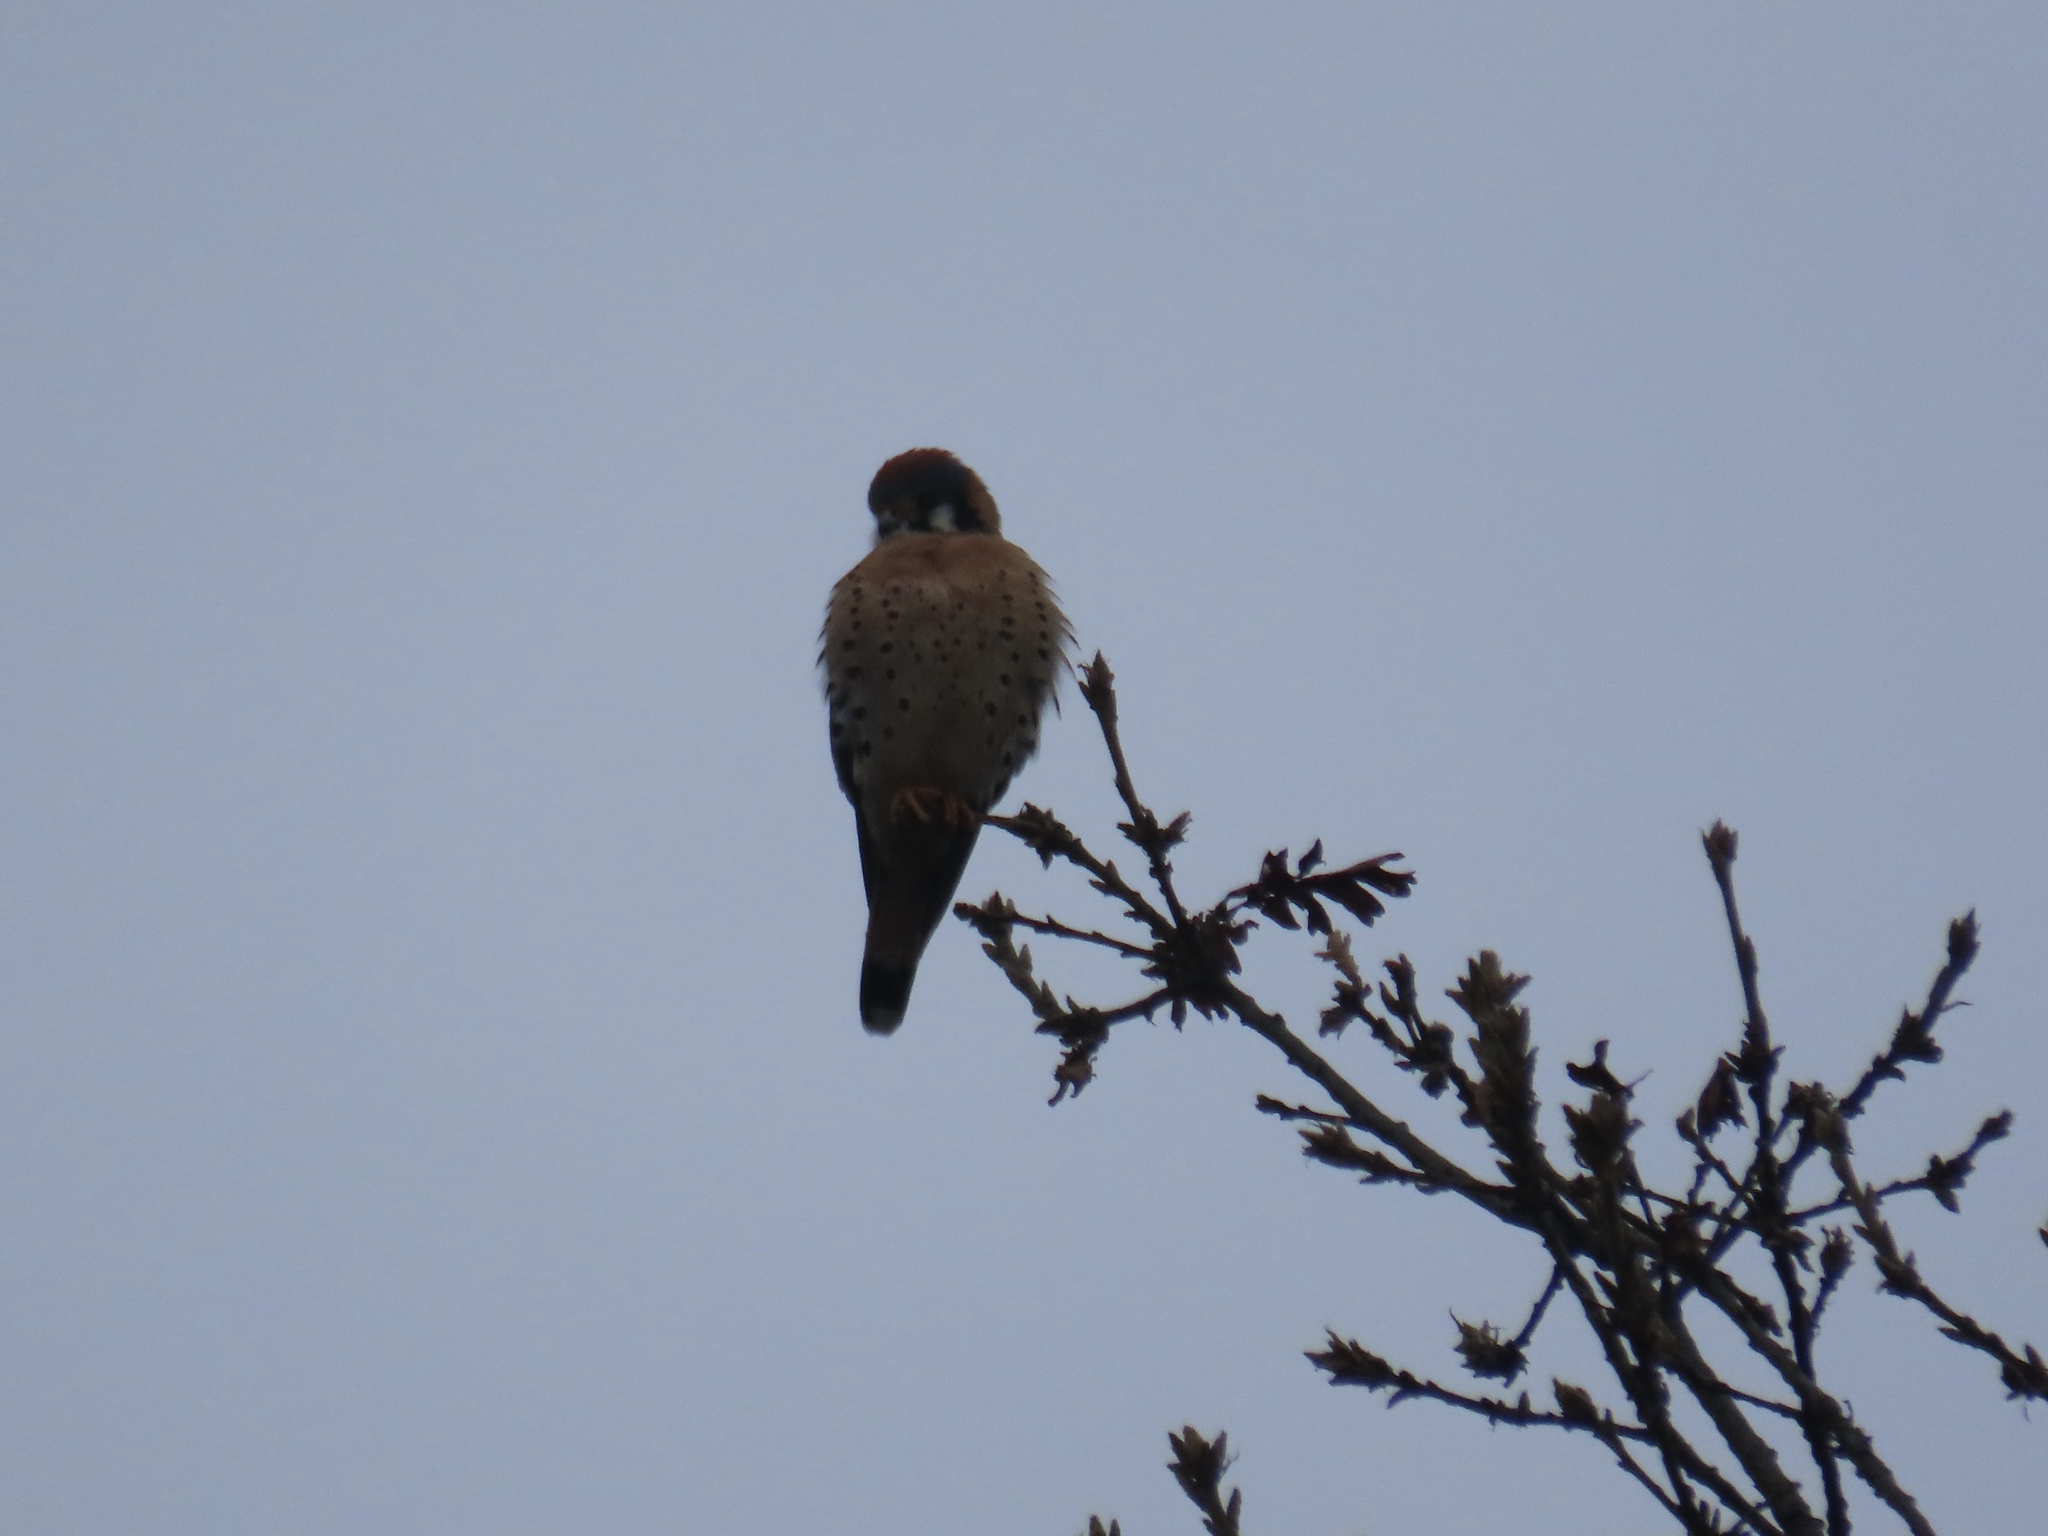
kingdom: Animalia
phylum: Chordata
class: Aves
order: Falconiformes
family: Falconidae
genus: Falco
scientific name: Falco sparverius
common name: American kestrel
